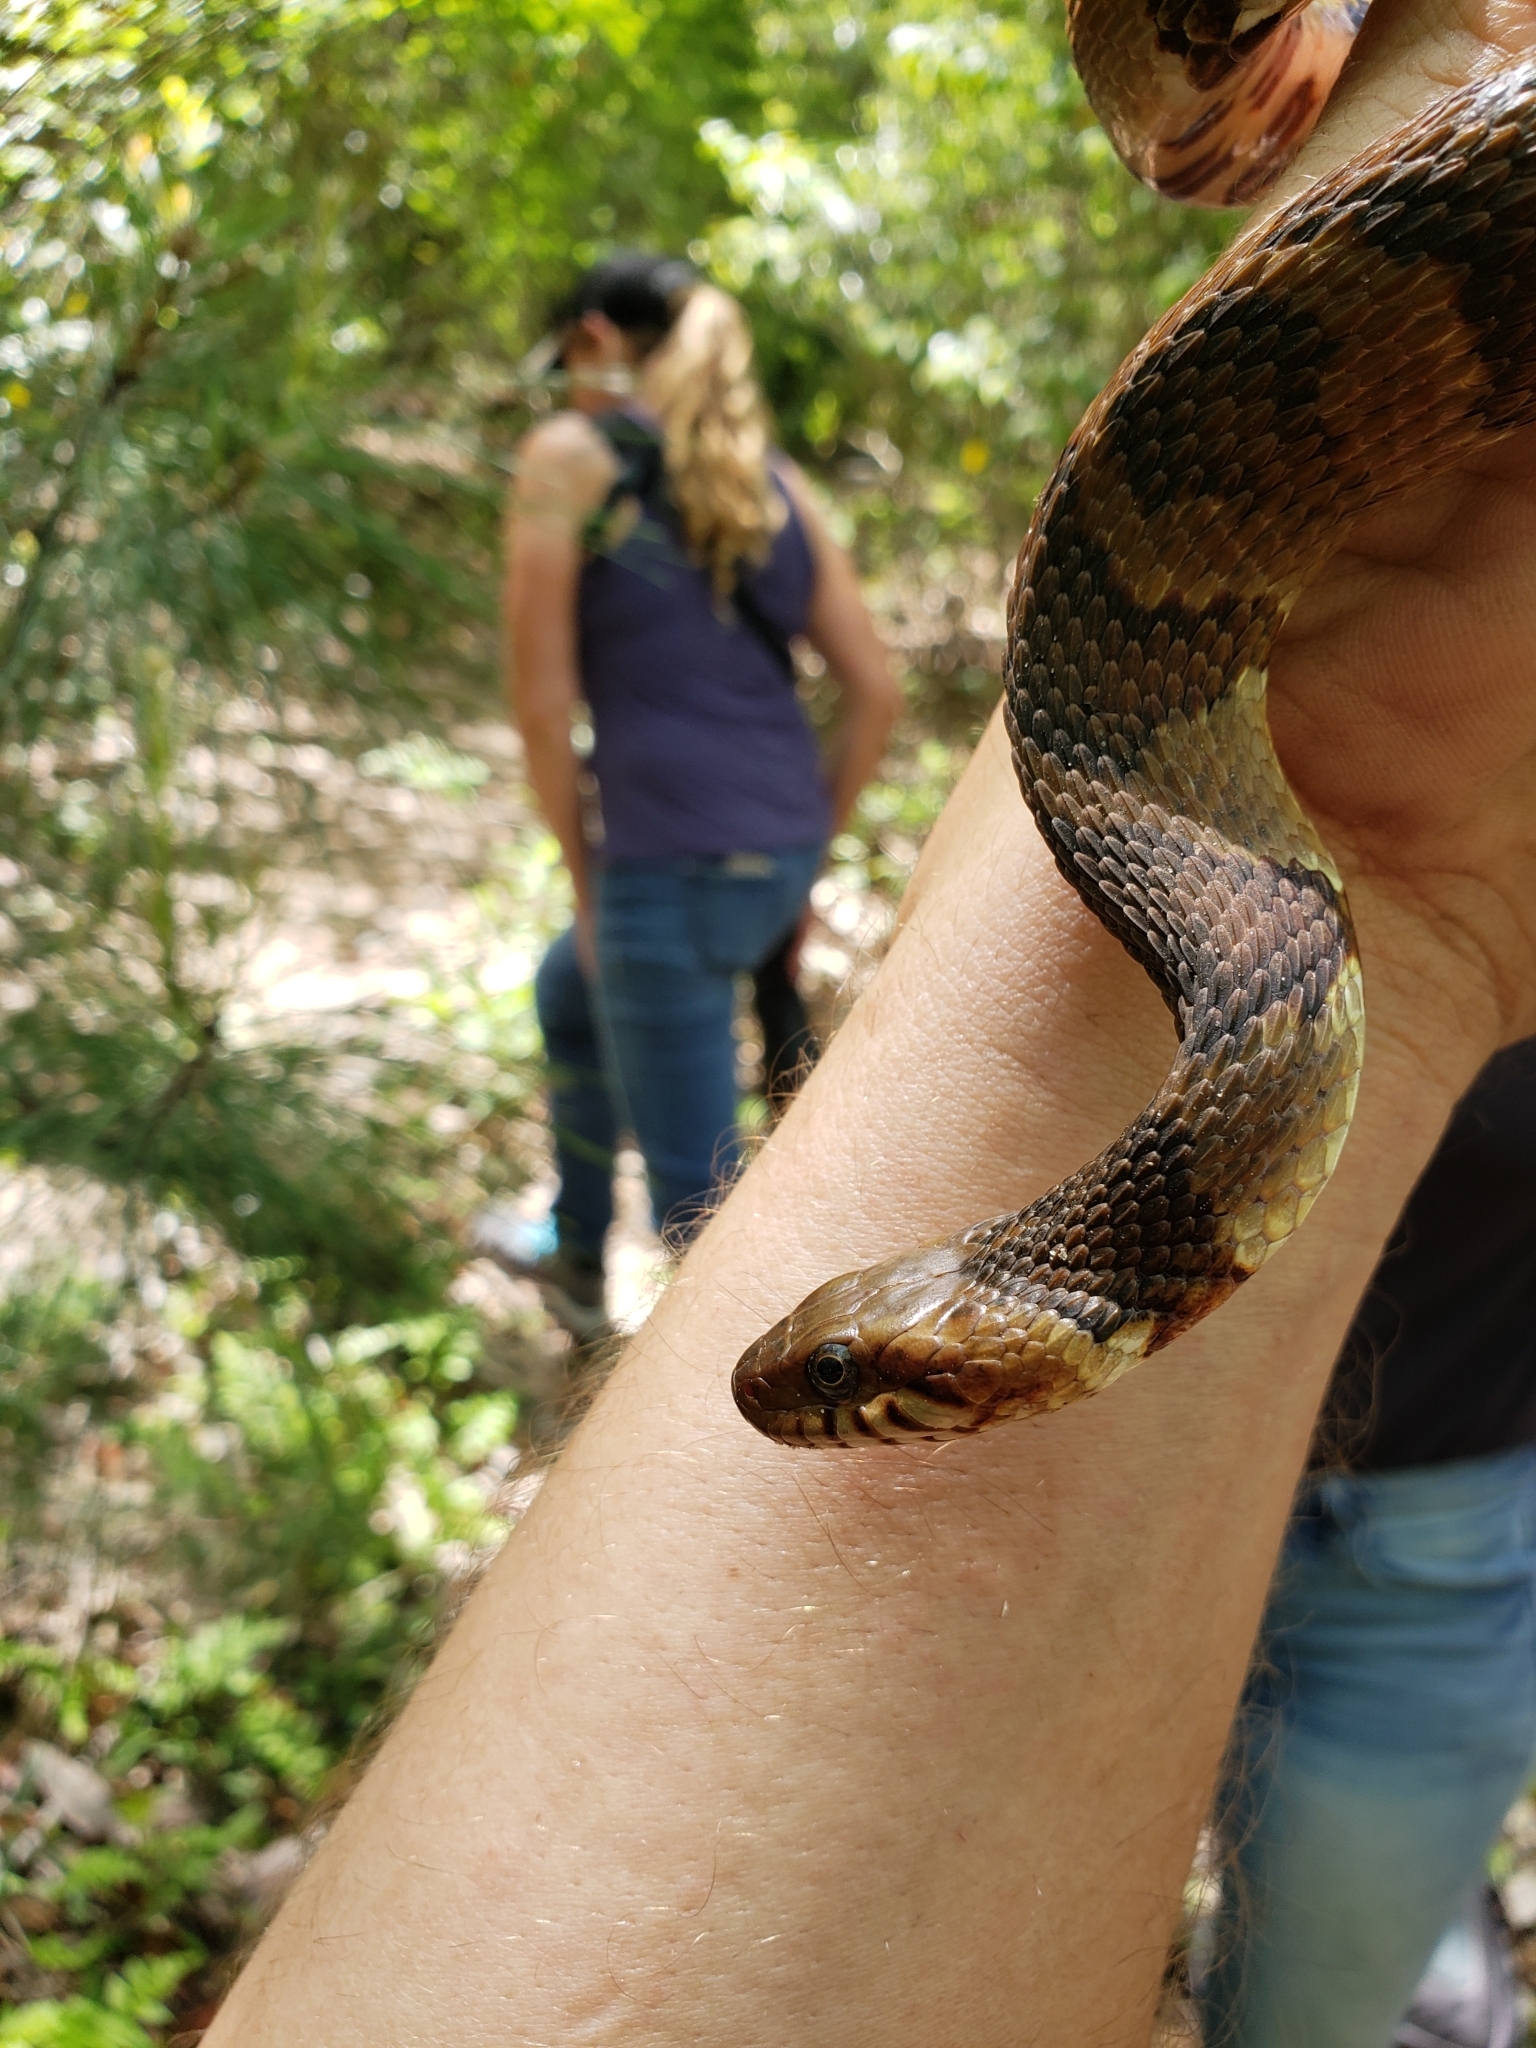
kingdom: Animalia
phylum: Chordata
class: Squamata
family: Colubridae
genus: Nerodia
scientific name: Nerodia fasciata
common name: Southern water snake
